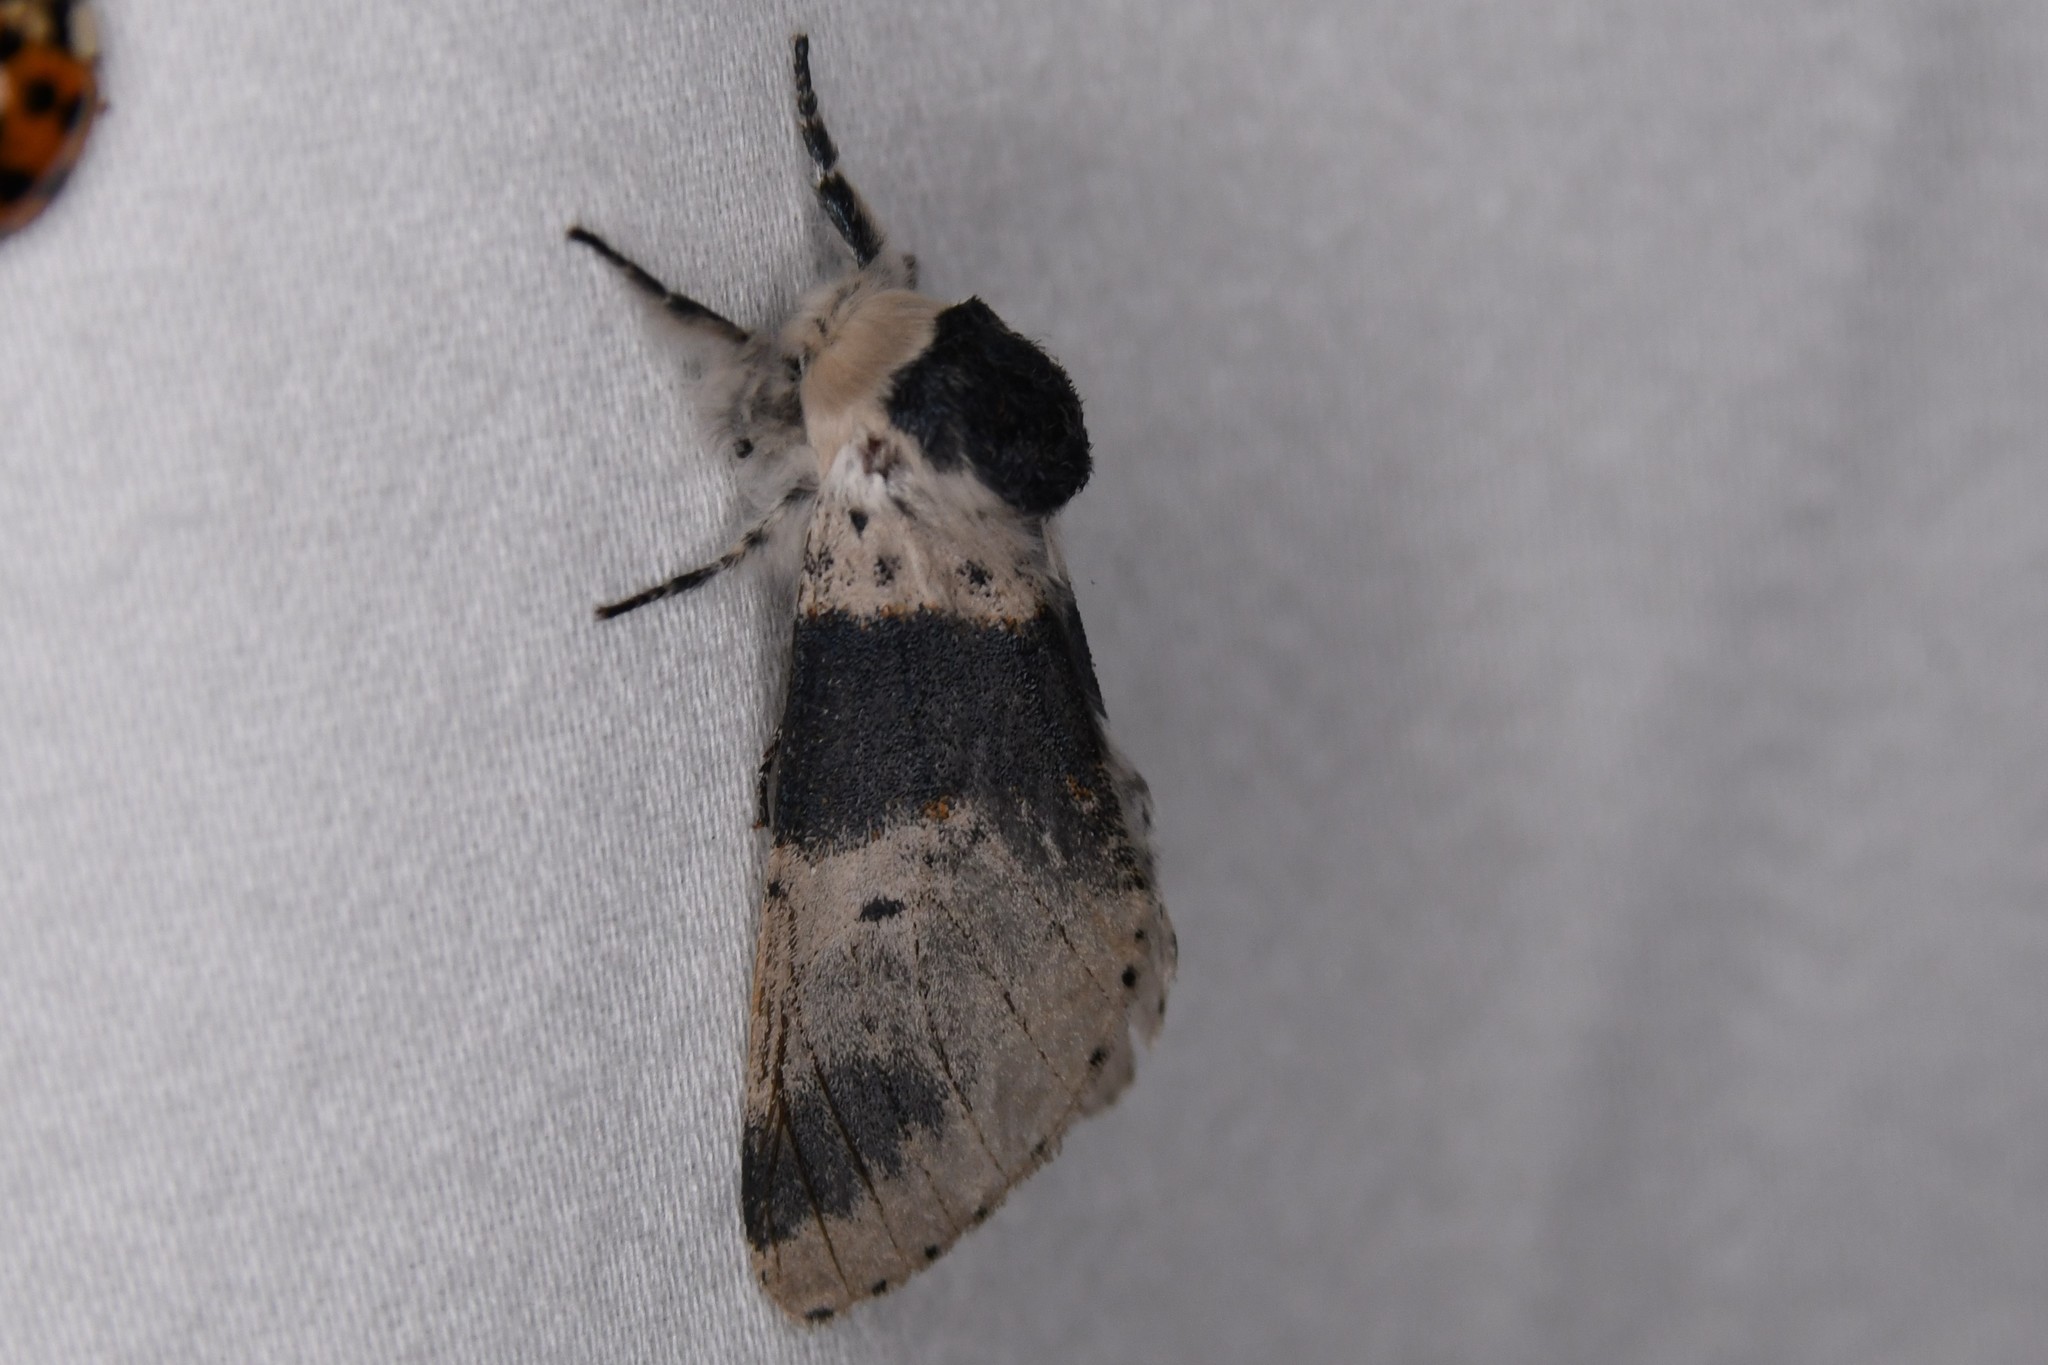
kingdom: Animalia
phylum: Arthropoda
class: Insecta
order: Lepidoptera
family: Notodontidae
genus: Furcula
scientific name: Furcula modesta
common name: Modest furcula moth
